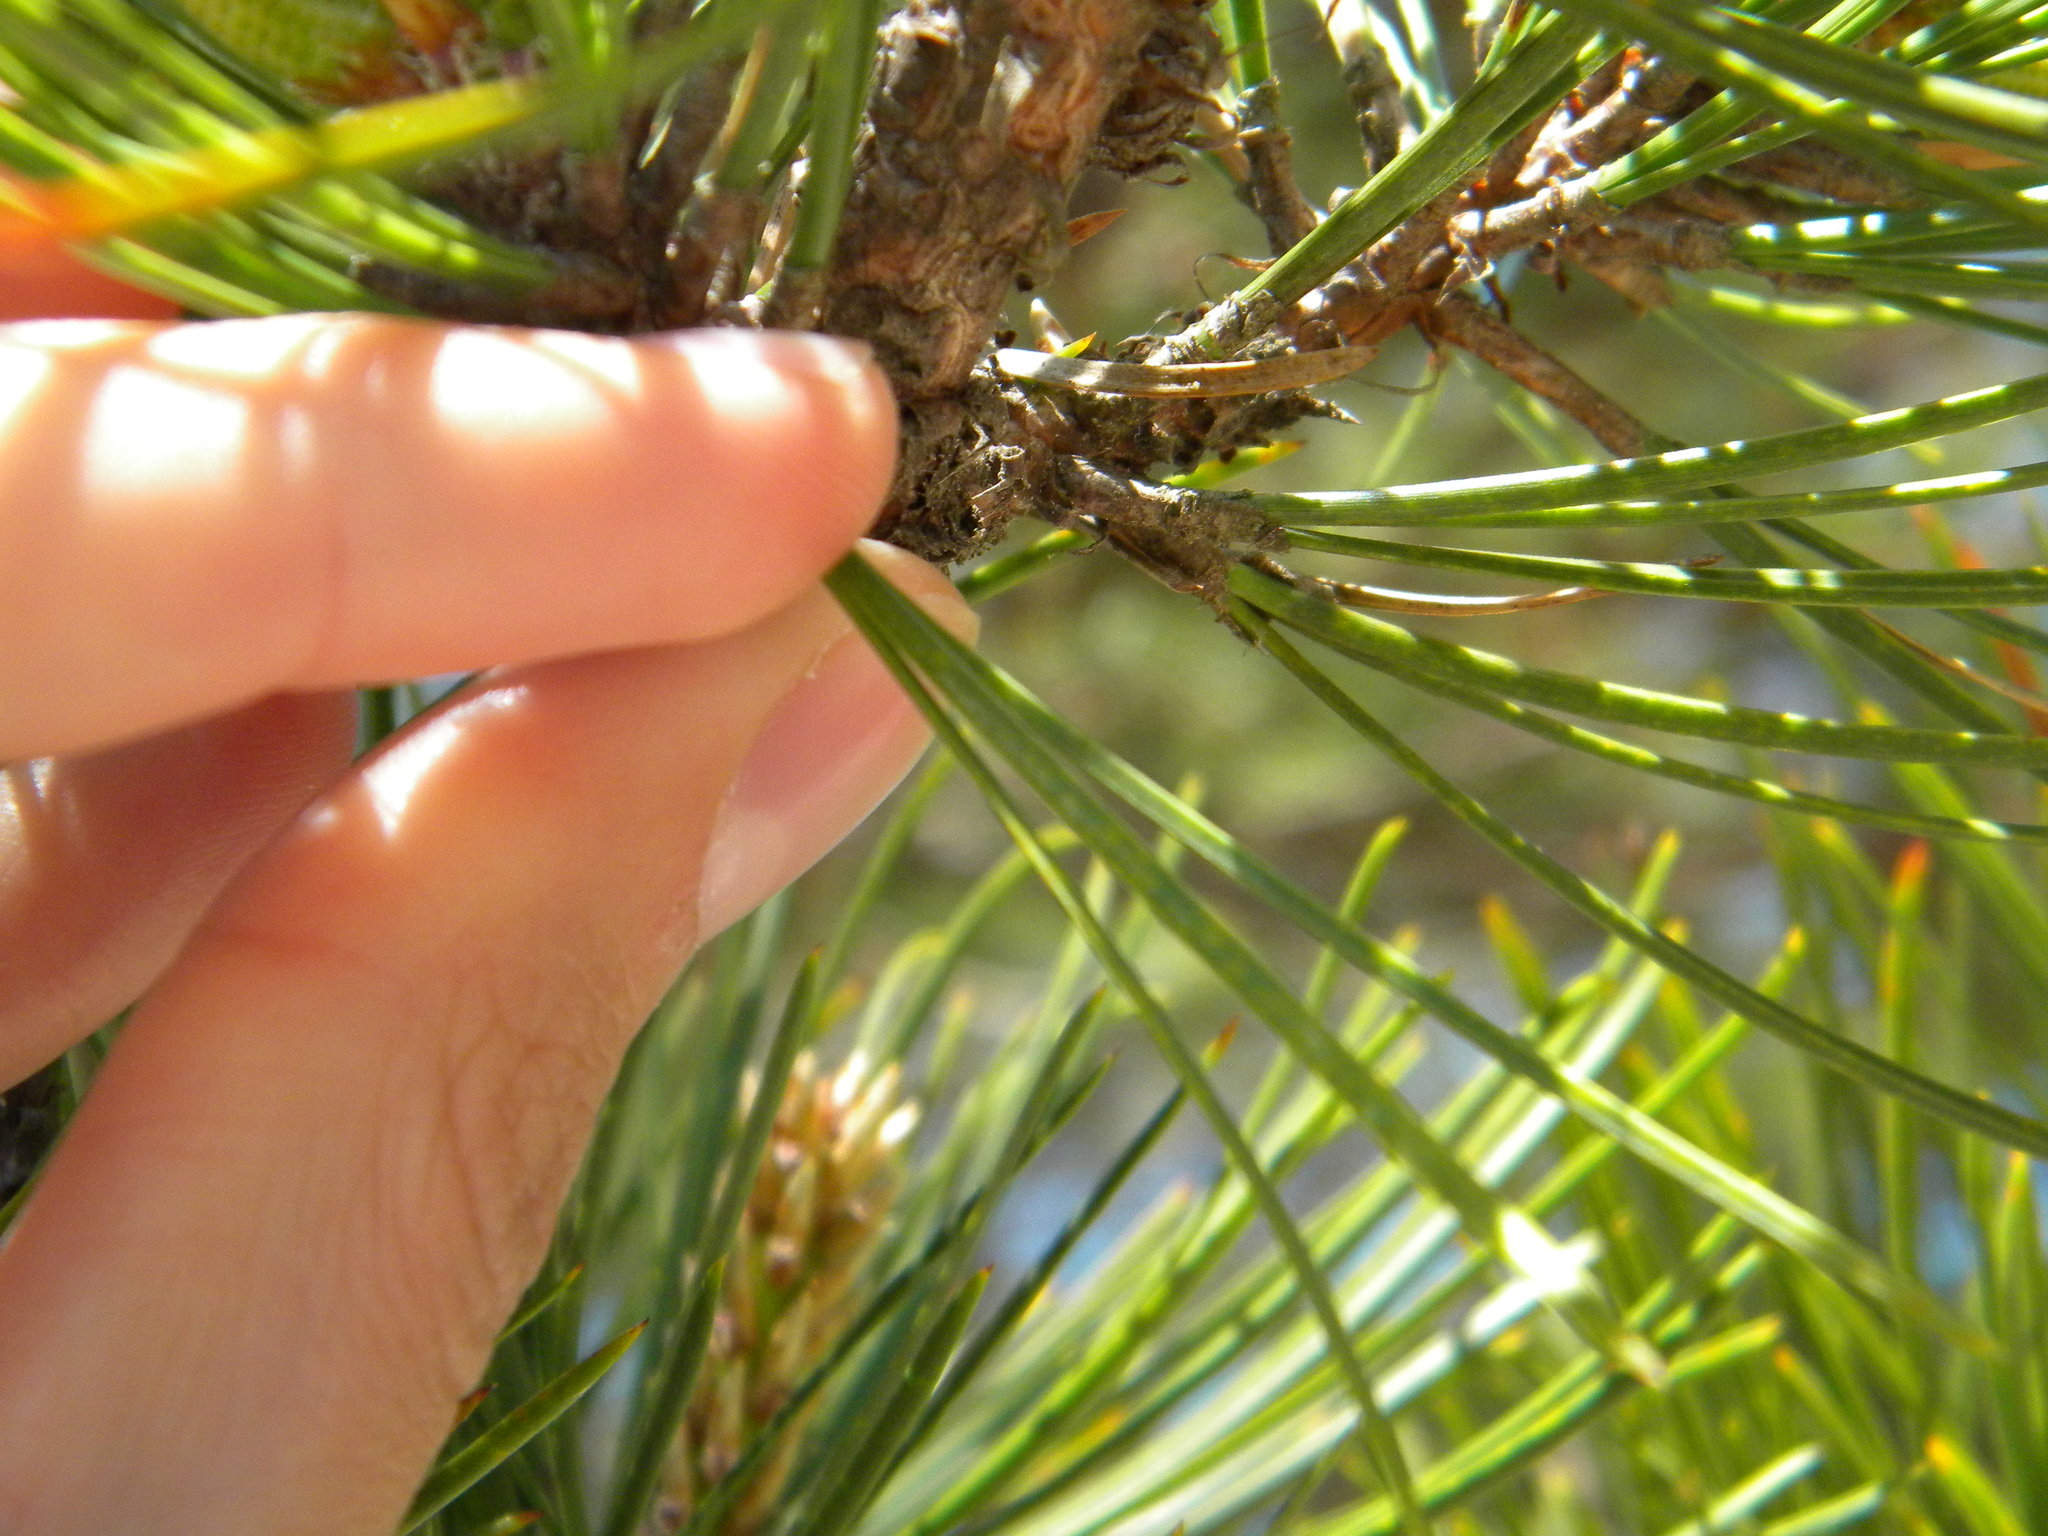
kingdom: Plantae
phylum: Tracheophyta
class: Pinopsida
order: Pinales
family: Pinaceae
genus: Pinus
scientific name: Pinus rigida
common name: Pitch pine
